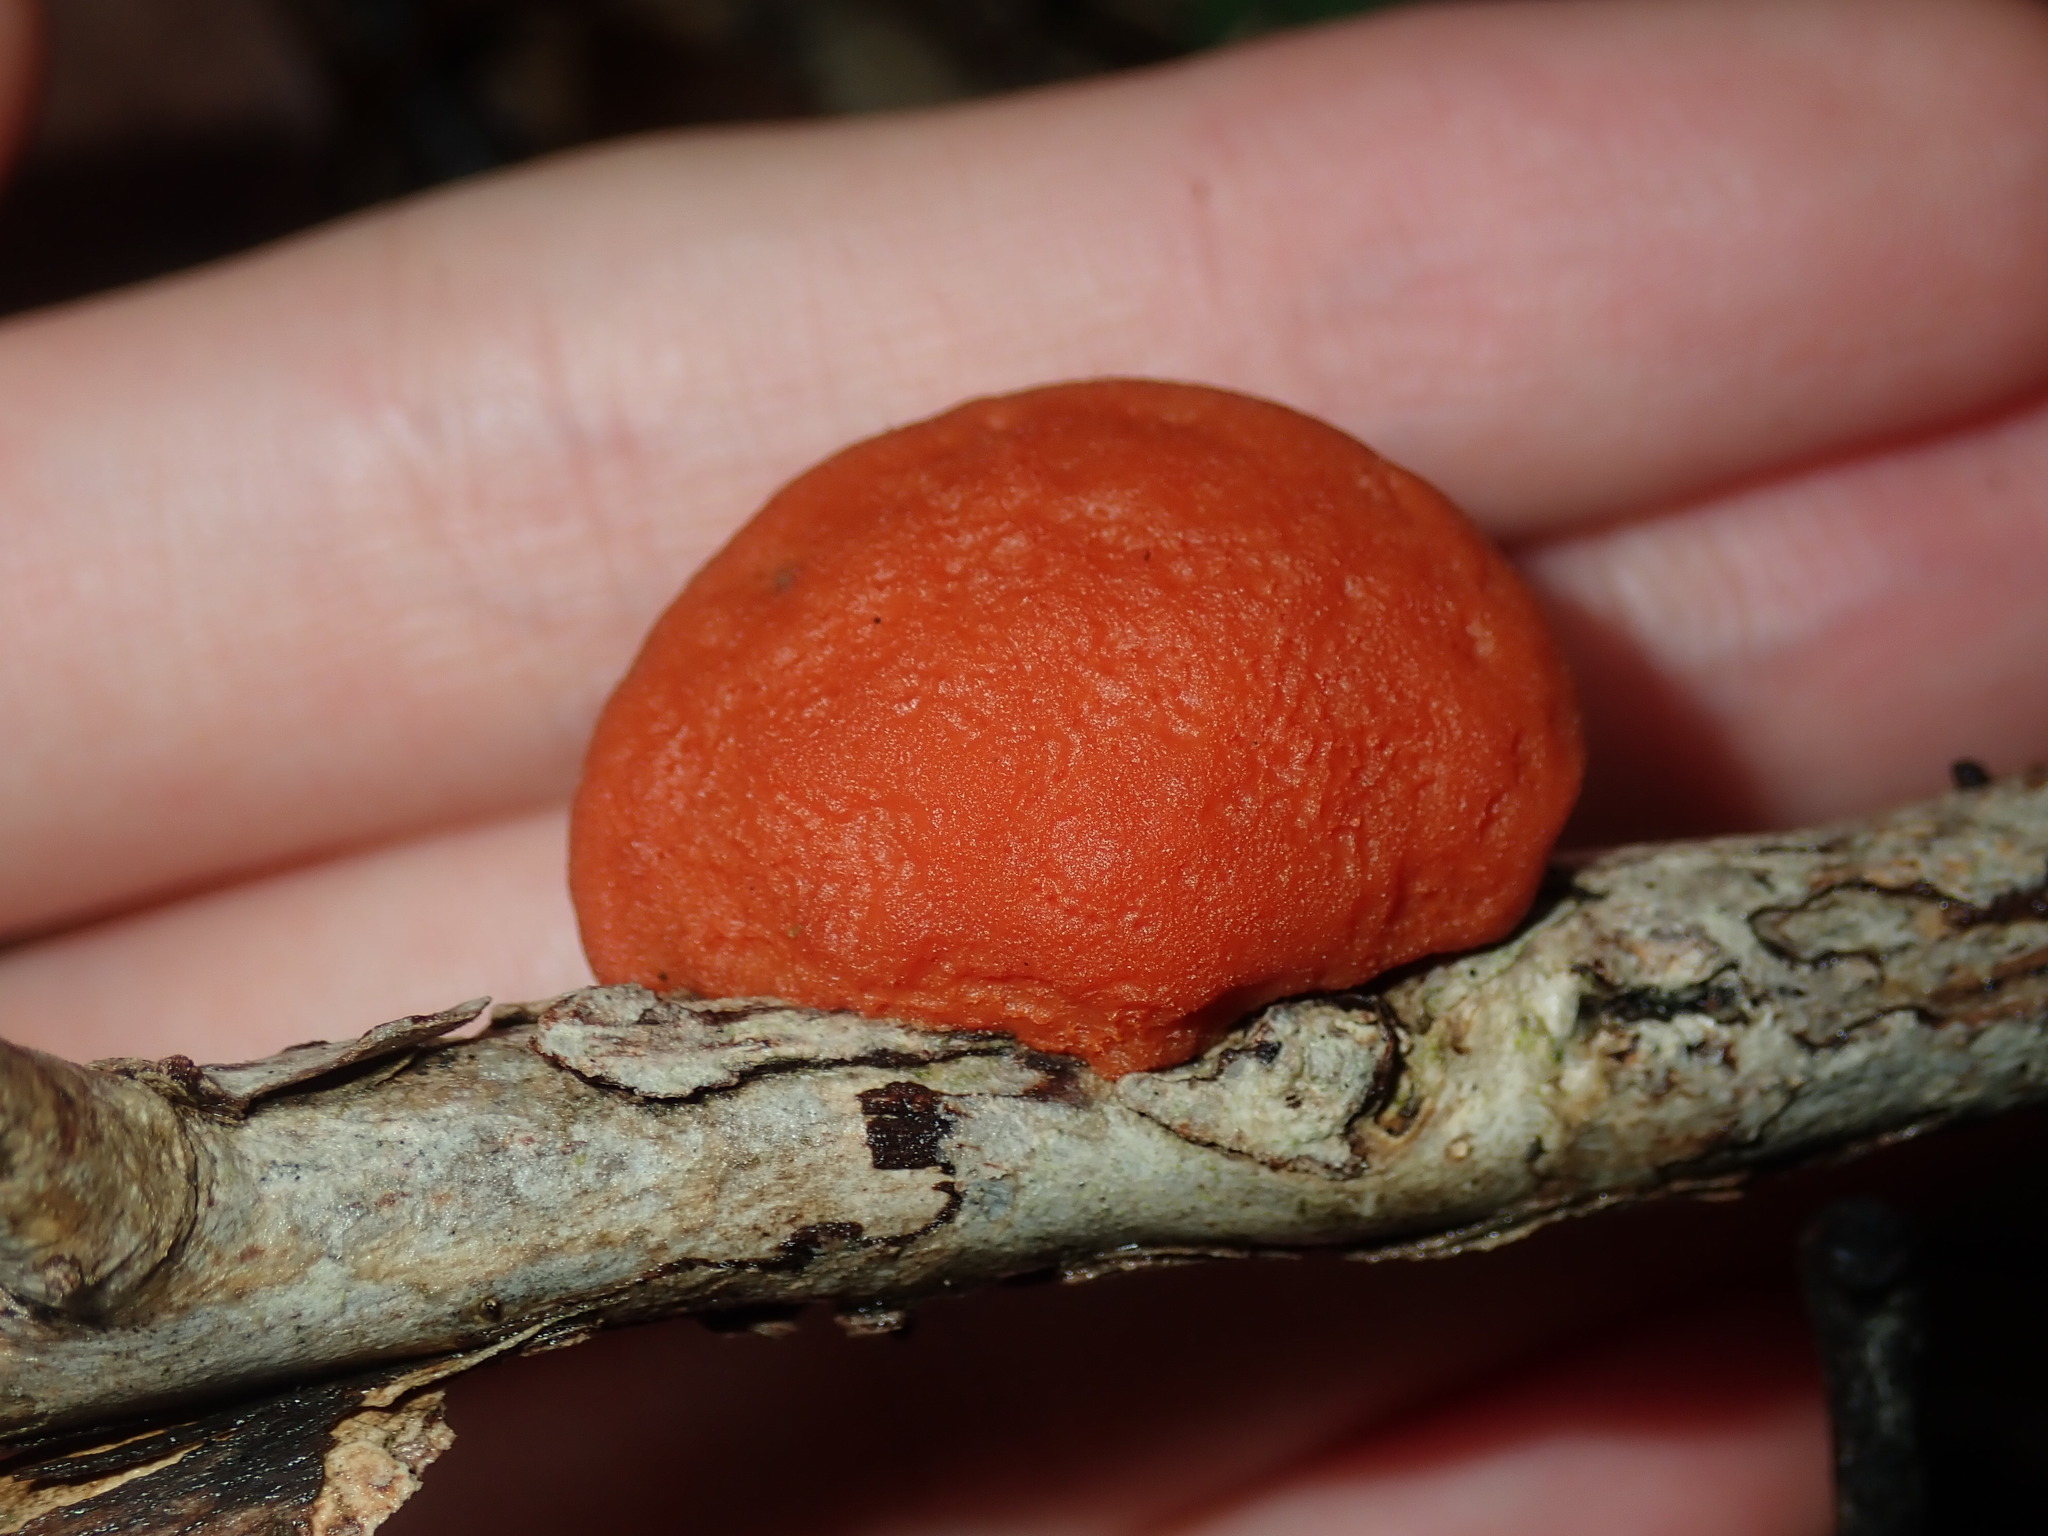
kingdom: Fungi
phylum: Basidiomycota
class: Agaricomycetes
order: Polyporales
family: Polyporaceae
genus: Trametes
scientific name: Trametes coccinea
